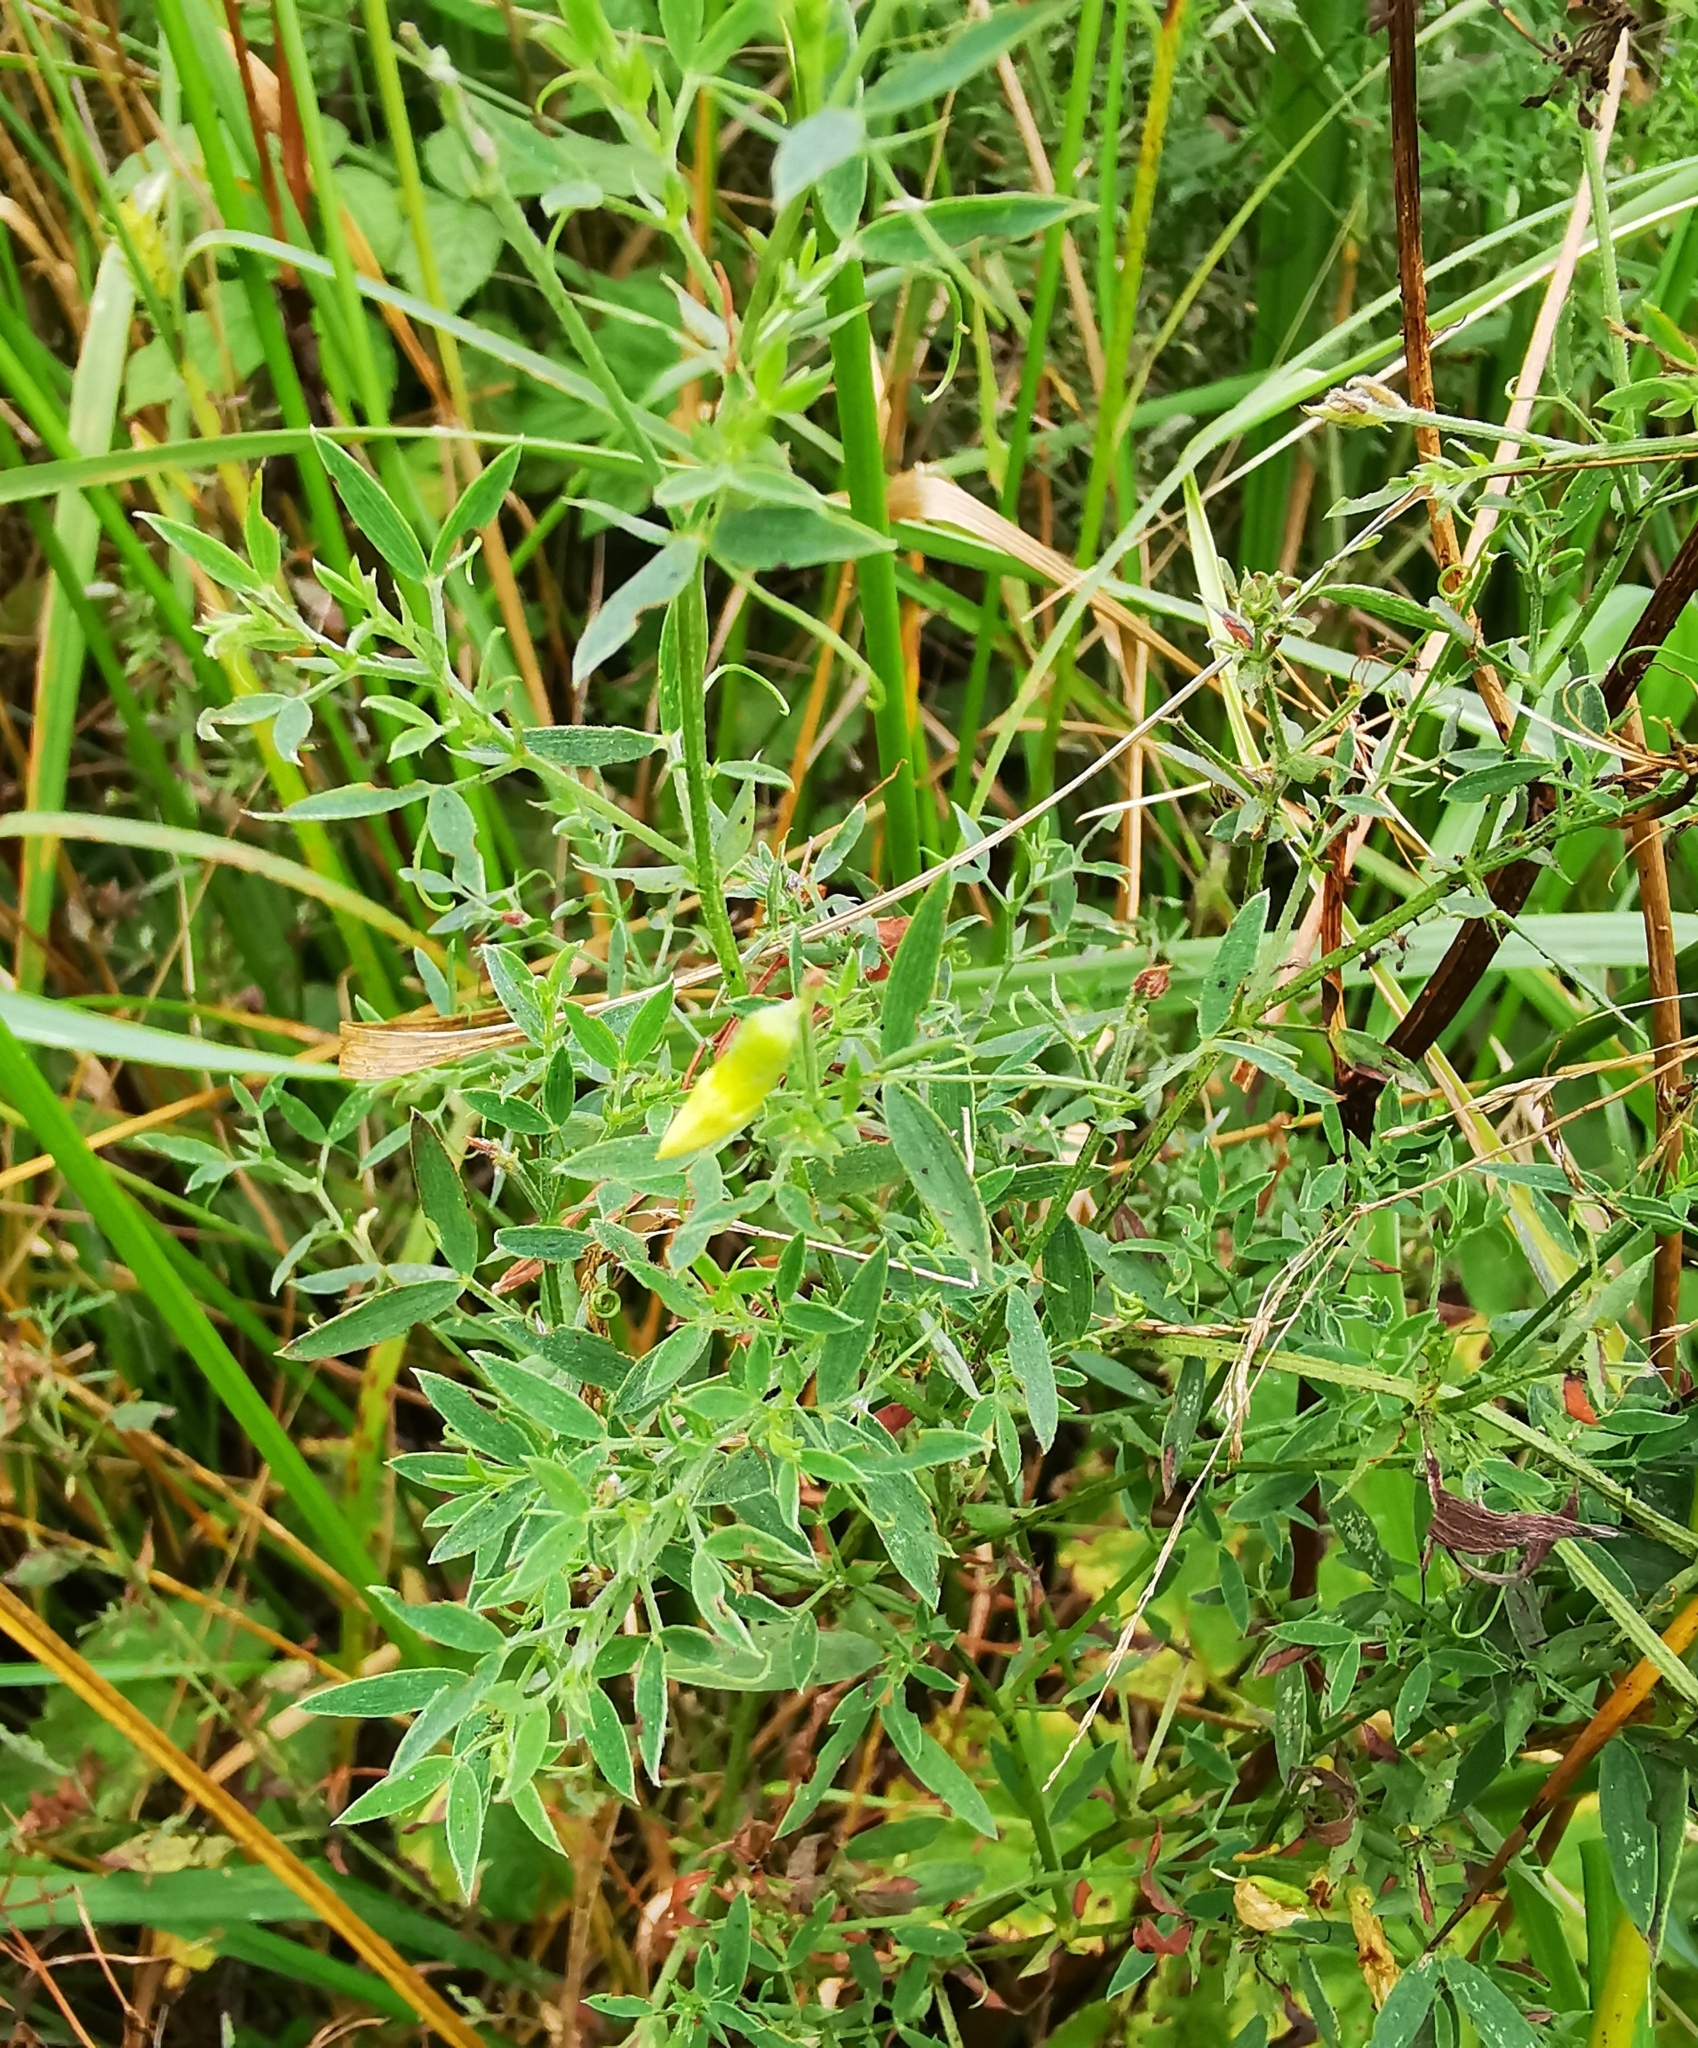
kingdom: Plantae
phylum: Tracheophyta
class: Magnoliopsida
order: Fabales
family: Fabaceae
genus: Lathyrus
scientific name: Lathyrus pratensis
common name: Meadow vetchling
